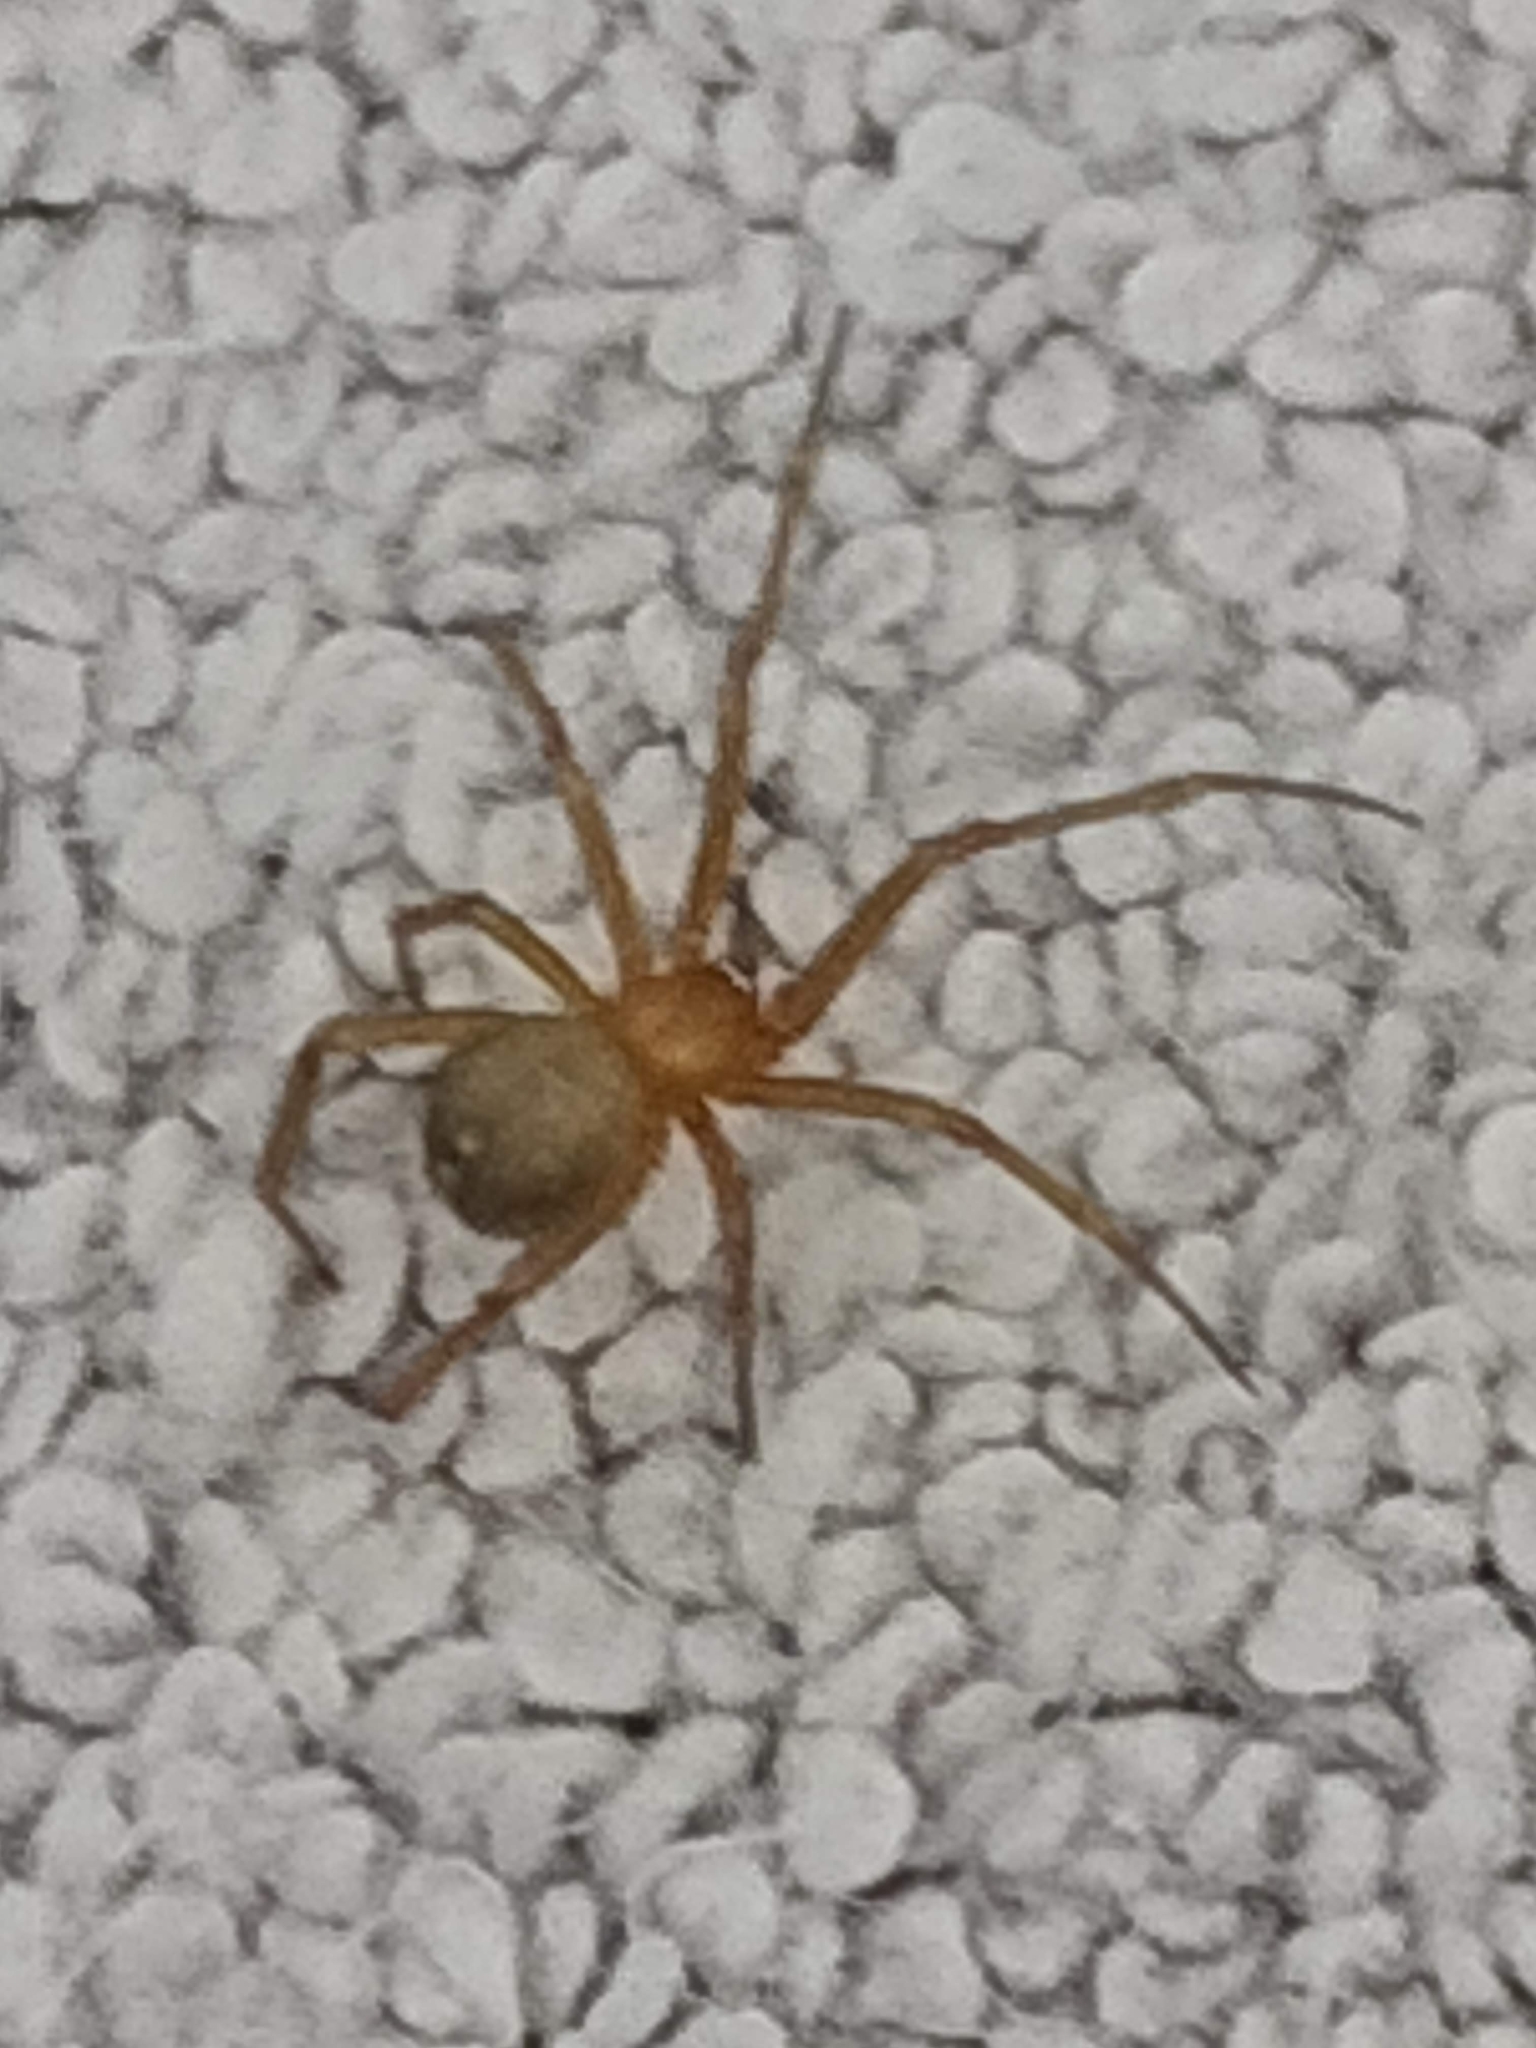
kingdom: Animalia
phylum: Arthropoda
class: Arachnida
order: Araneae
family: Theridiidae
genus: Nesticodes
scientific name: Nesticodes rufipes
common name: Cobweb spiders
